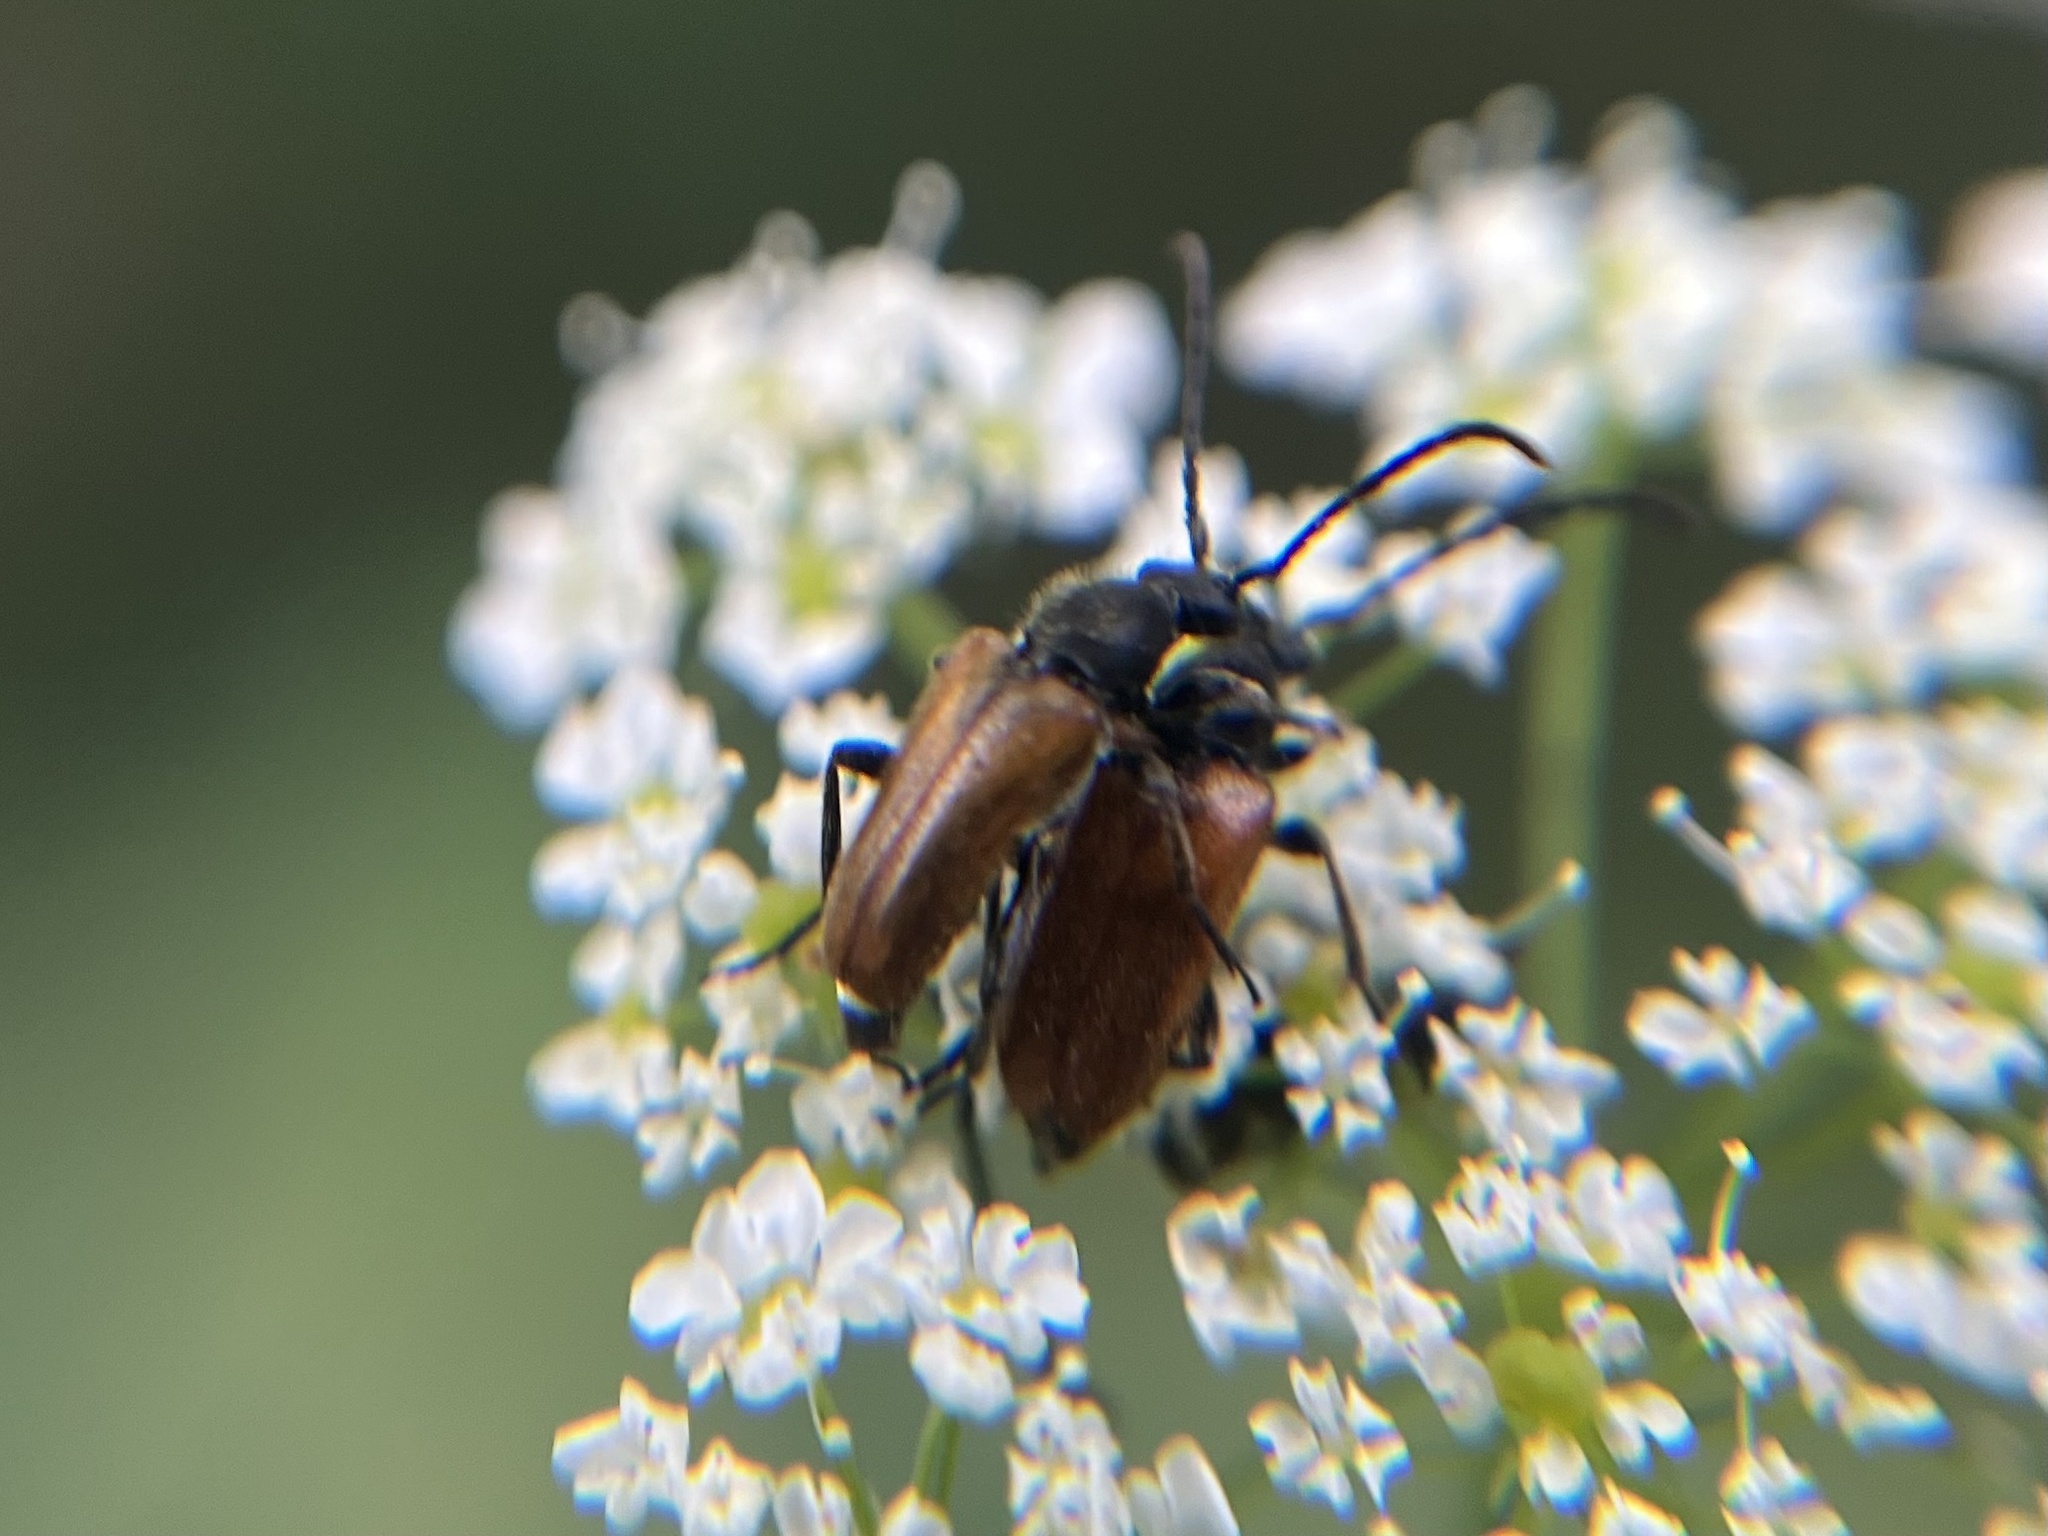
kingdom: Animalia
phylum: Arthropoda
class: Insecta
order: Coleoptera
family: Cerambycidae
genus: Pseudovadonia
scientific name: Pseudovadonia livida
